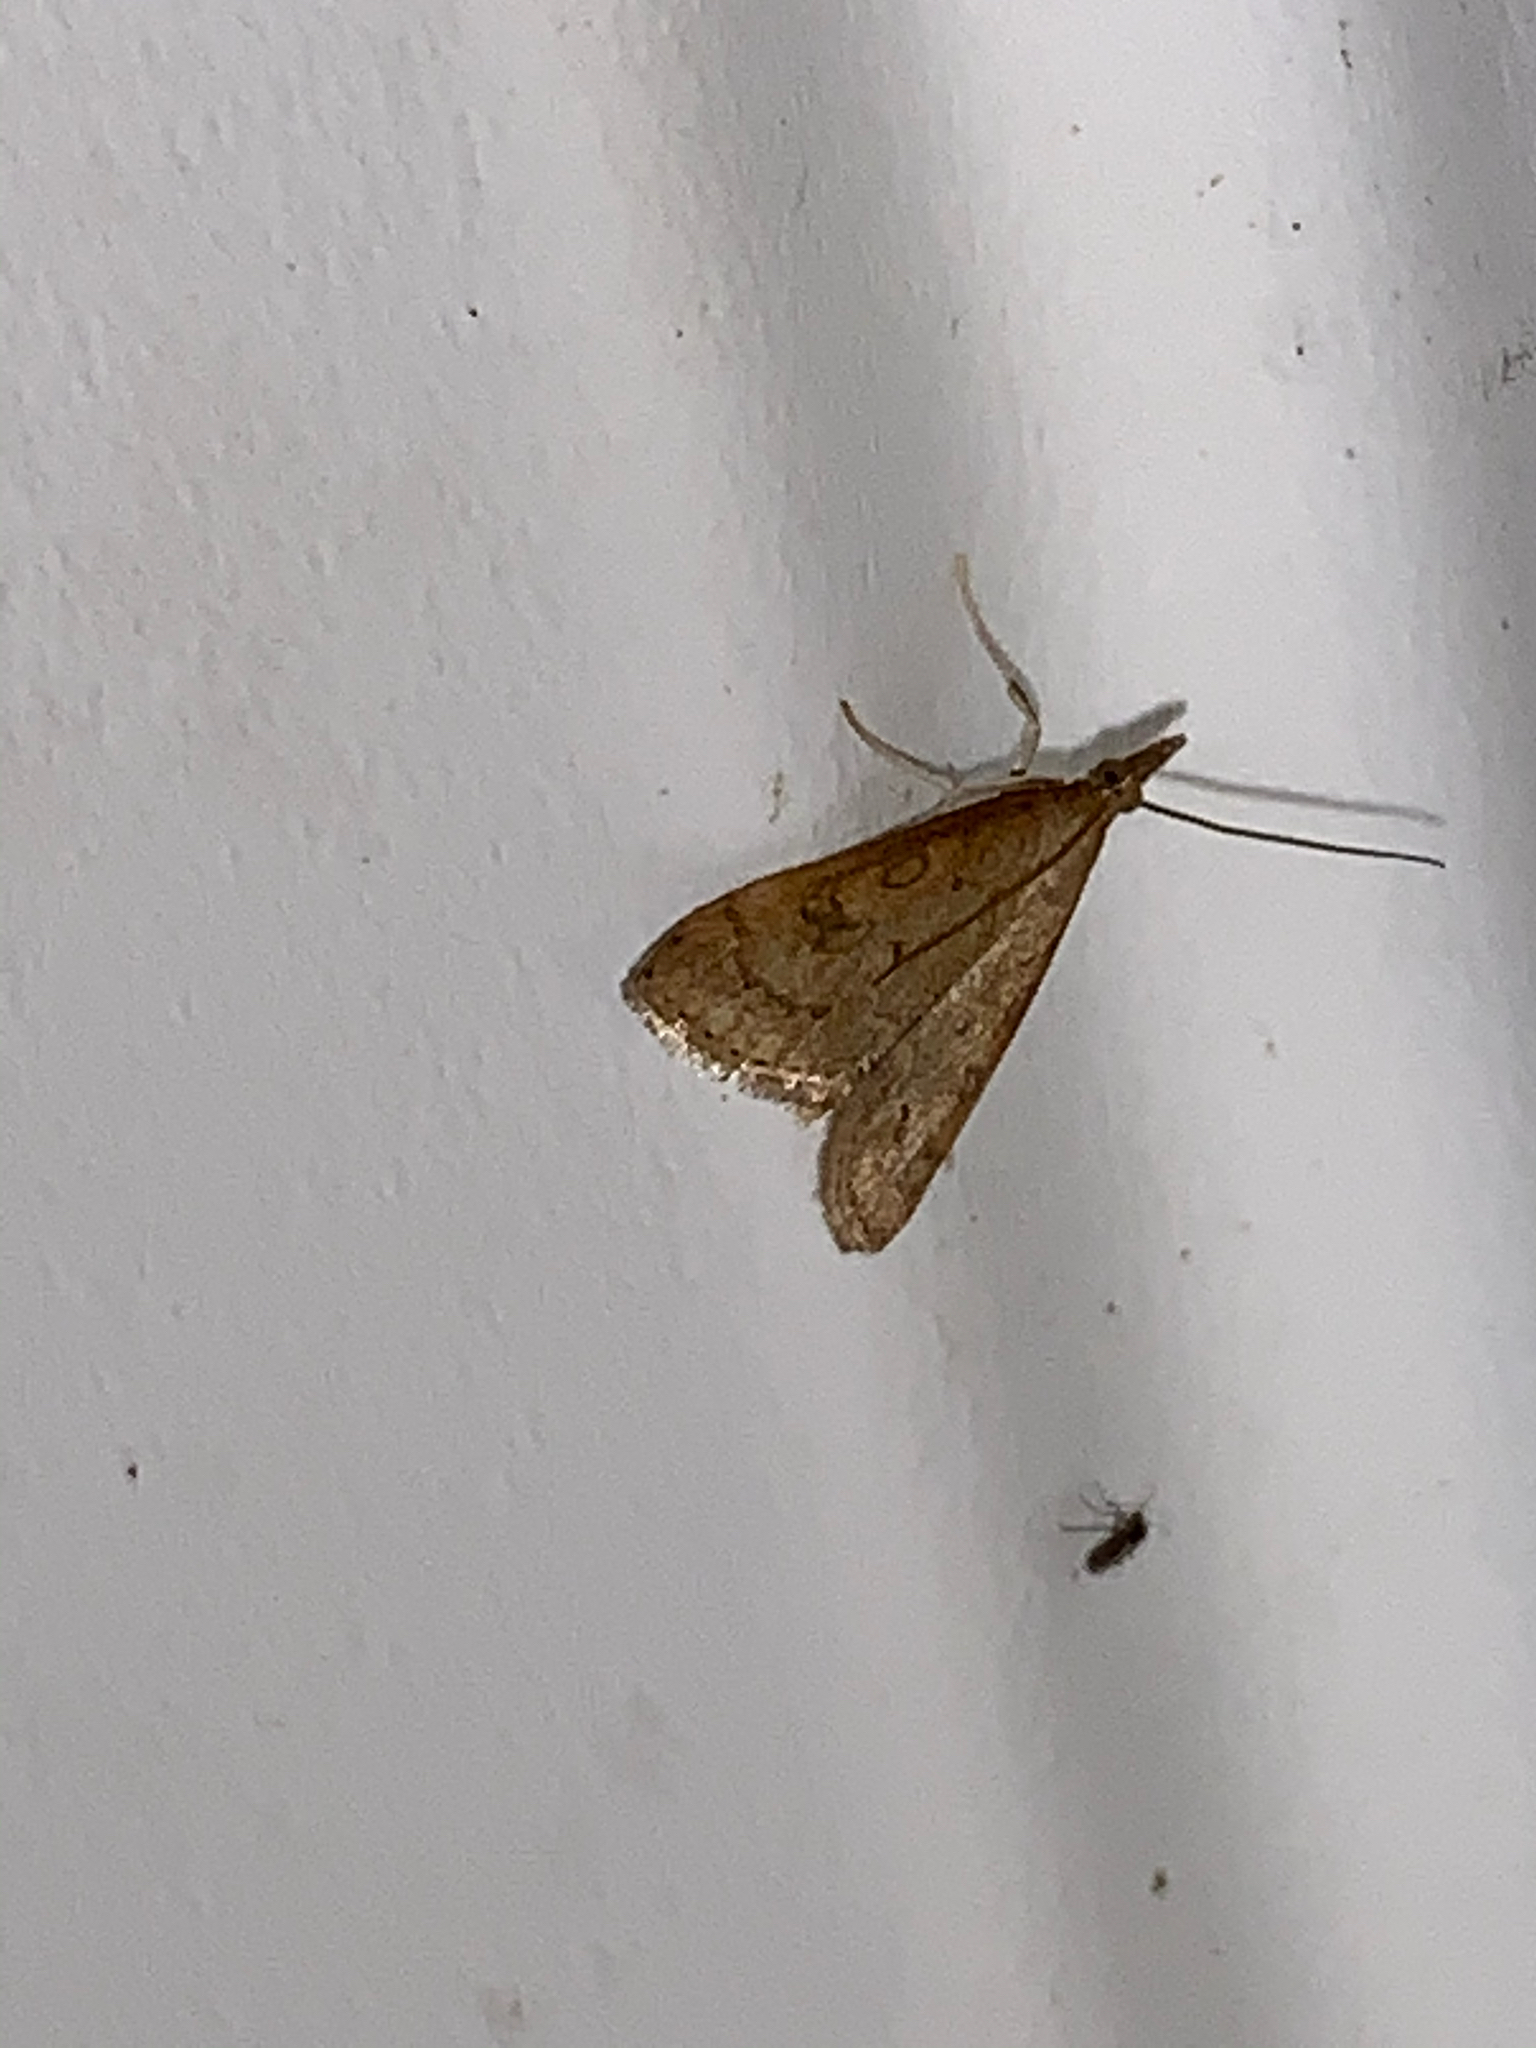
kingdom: Animalia
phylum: Arthropoda
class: Insecta
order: Lepidoptera
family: Crambidae
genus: Udea
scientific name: Udea rubigalis
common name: Celery leaftier moth
